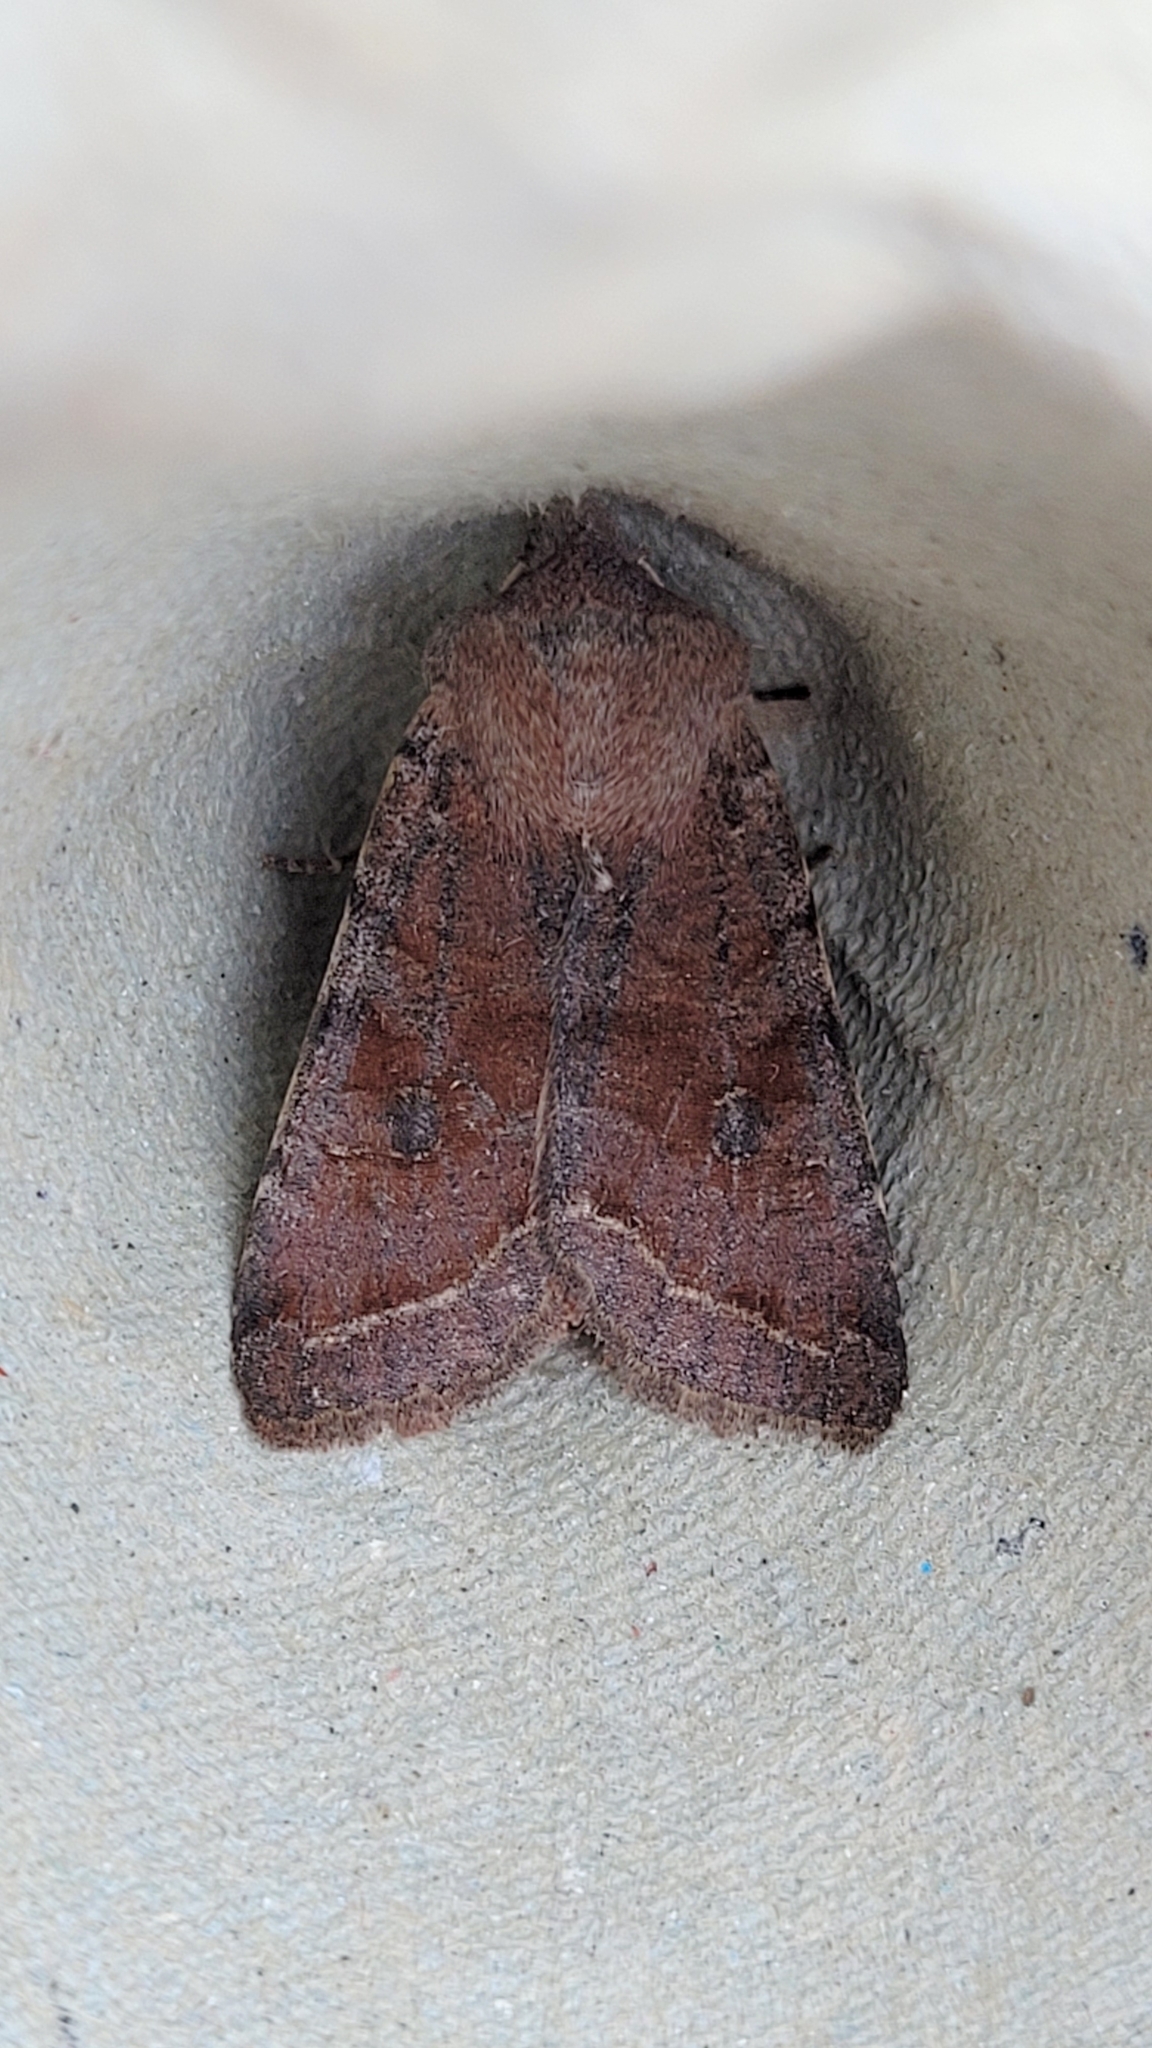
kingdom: Animalia
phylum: Arthropoda
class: Insecta
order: Lepidoptera
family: Noctuidae
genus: Orthosia
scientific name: Orthosia incerta
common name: Clouded drab
